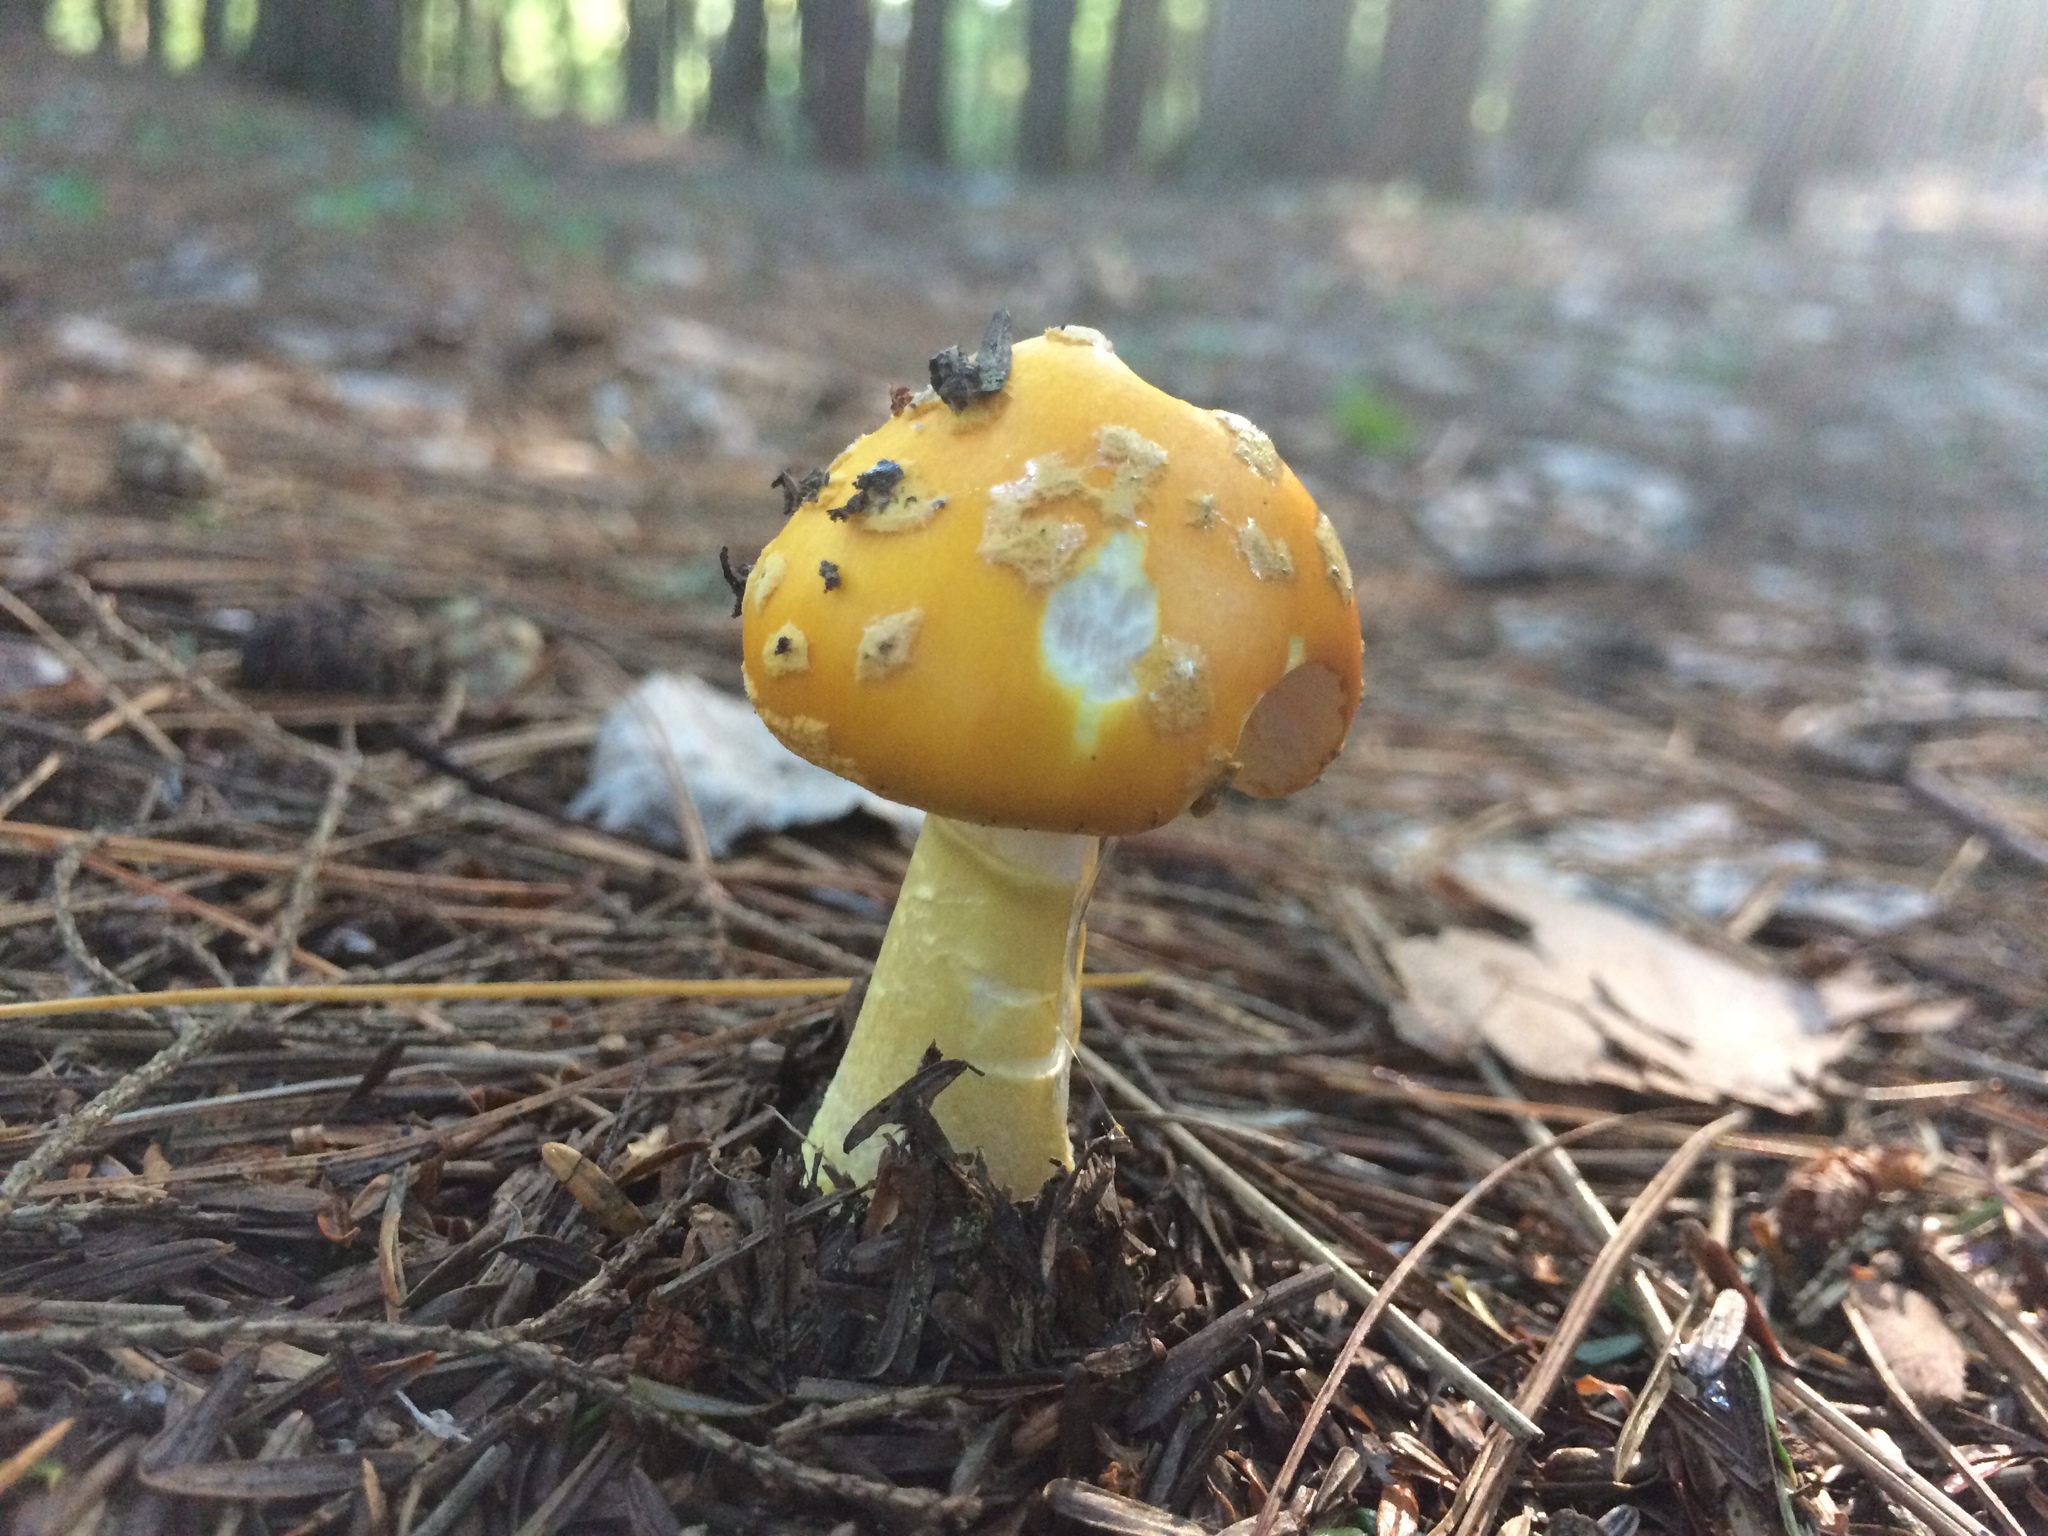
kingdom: Fungi
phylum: Basidiomycota
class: Agaricomycetes
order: Agaricales
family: Amanitaceae
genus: Amanita
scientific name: Amanita flavoconia
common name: Yellow patches
